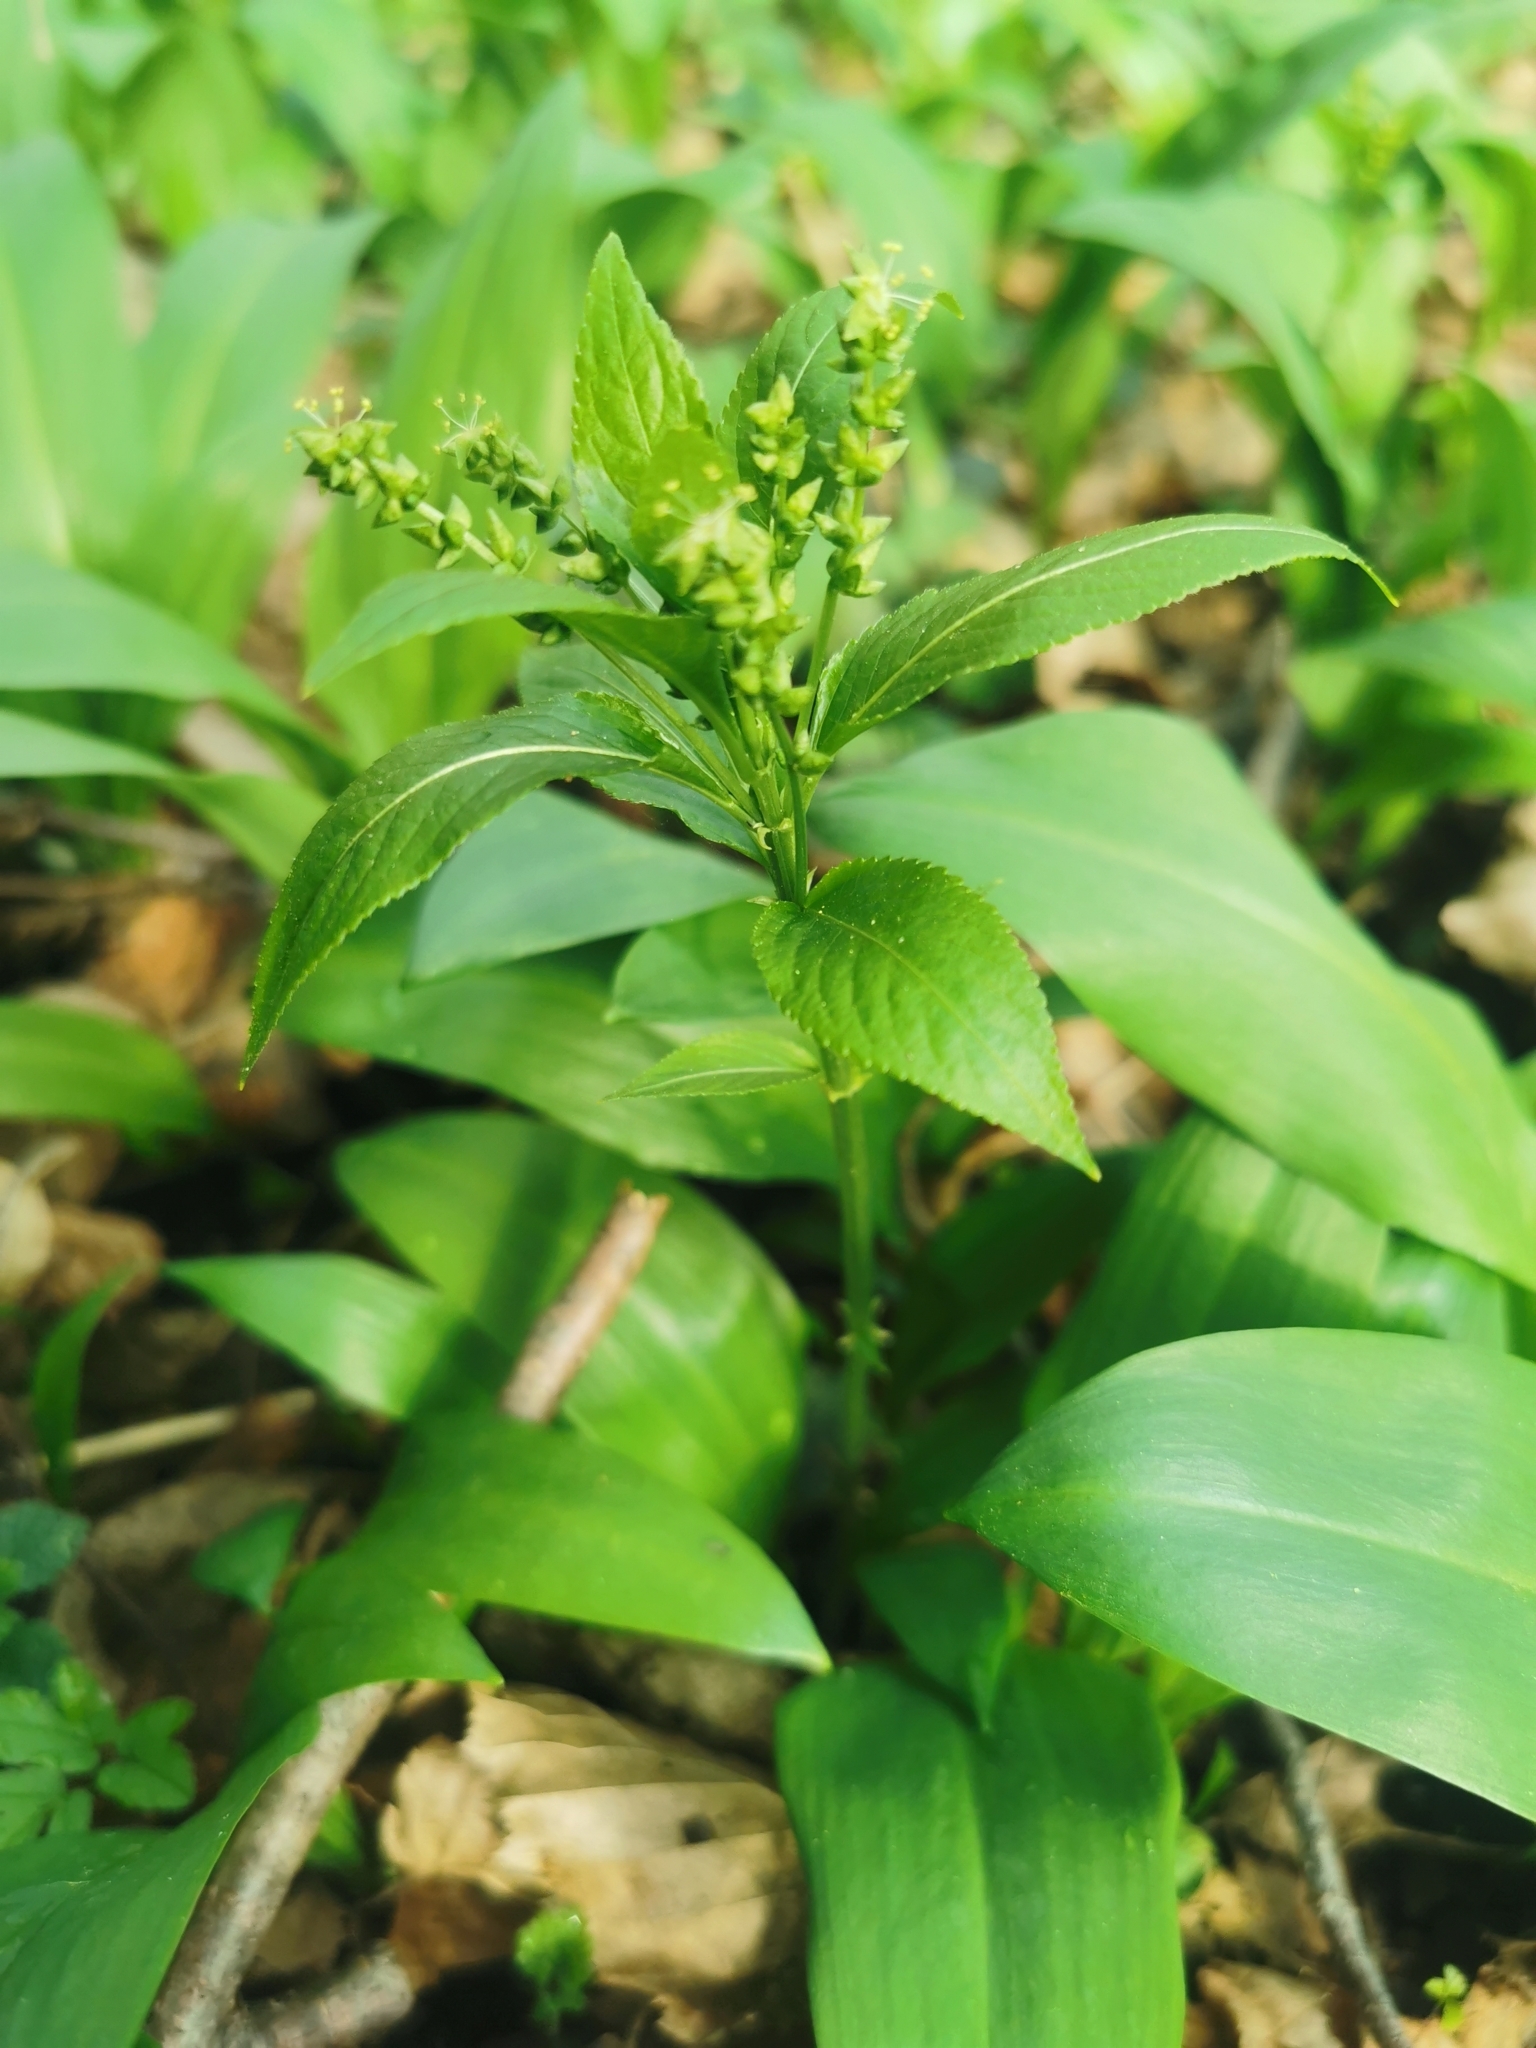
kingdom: Plantae
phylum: Tracheophyta
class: Magnoliopsida
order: Malpighiales
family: Euphorbiaceae
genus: Mercurialis
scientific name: Mercurialis perennis
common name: Dog mercury
